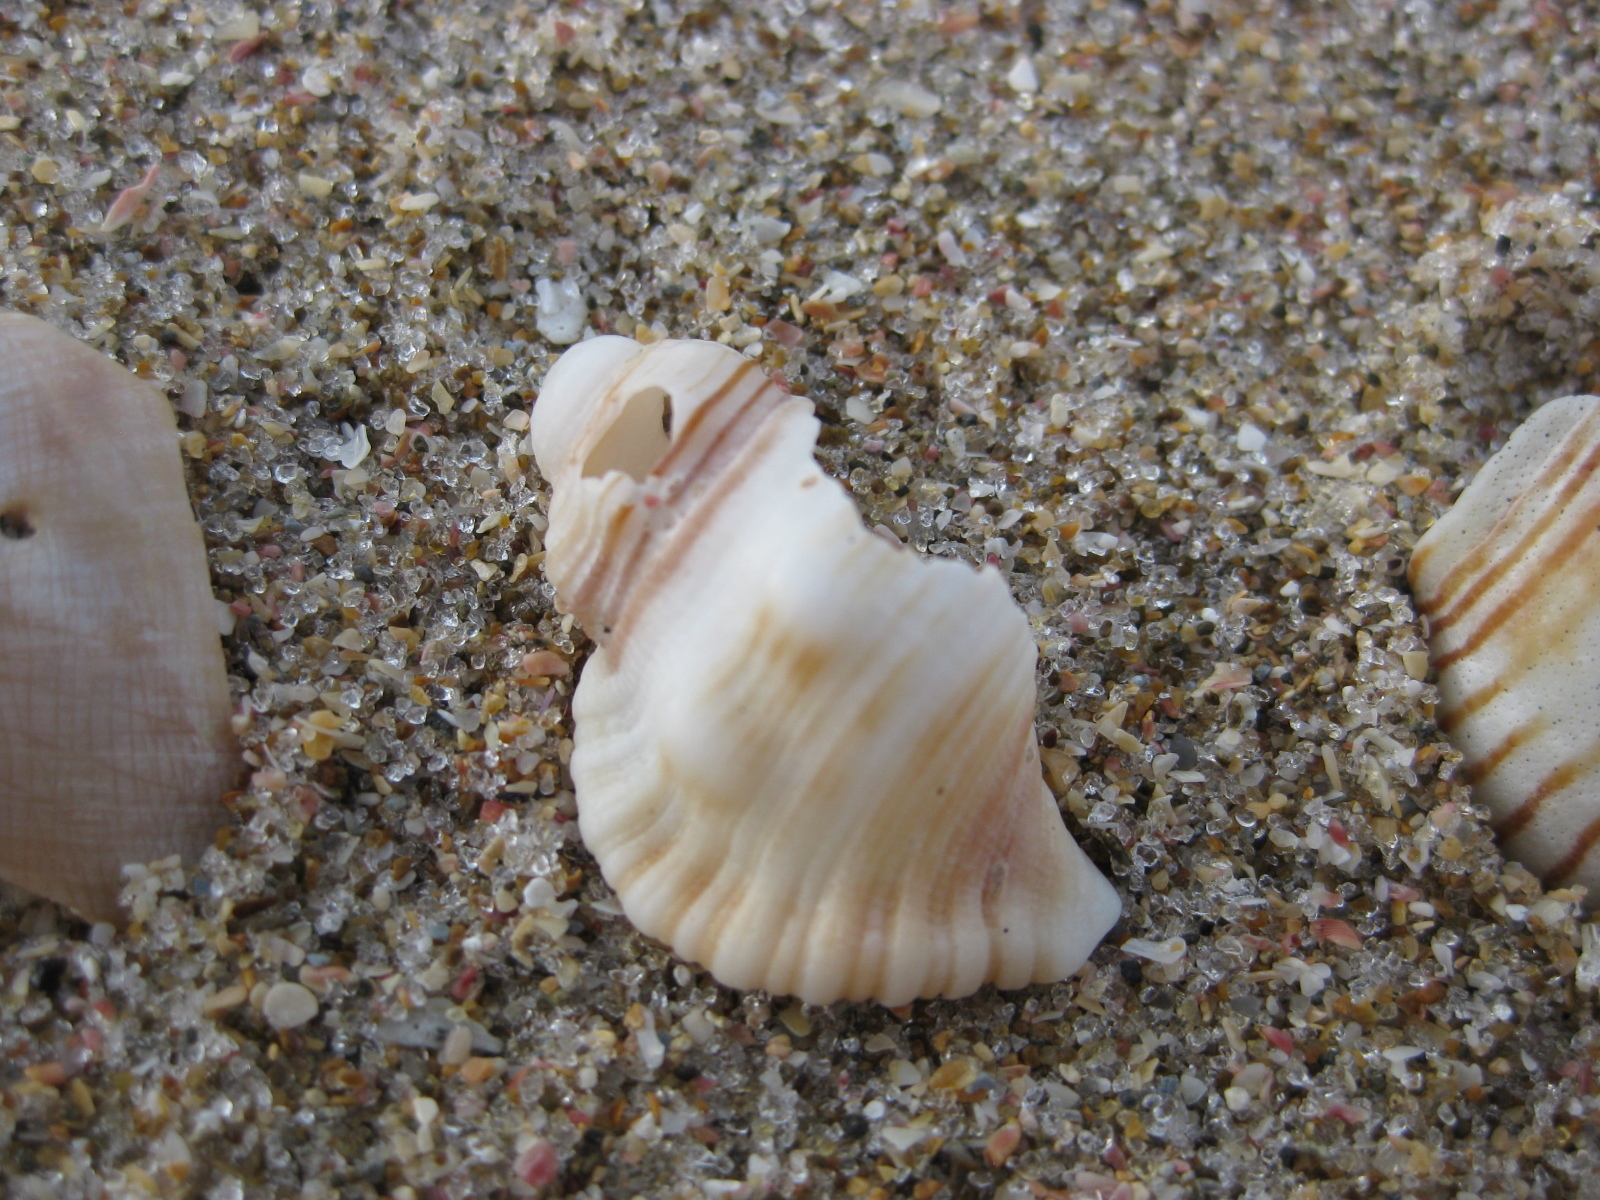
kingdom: Animalia
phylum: Mollusca
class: Gastropoda
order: Littorinimorpha
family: Cymatiidae
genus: Cabestana
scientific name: Cabestana spengleri
